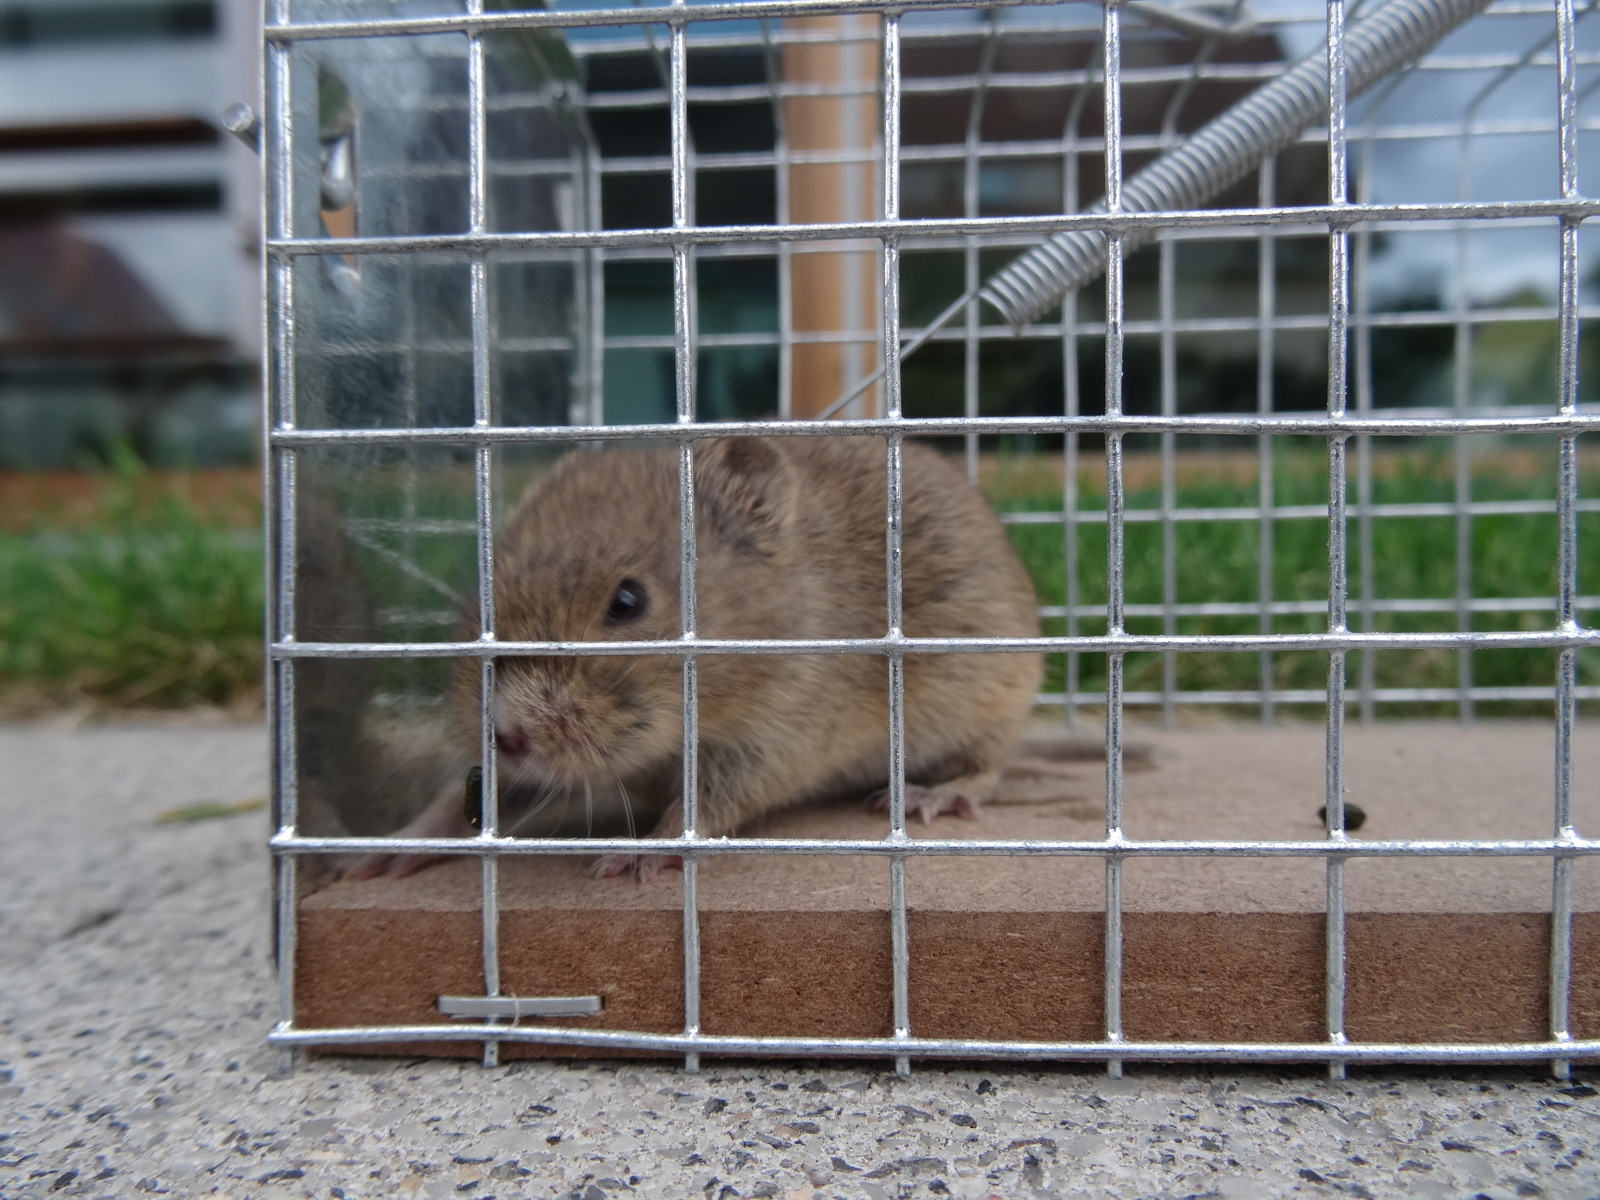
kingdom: Animalia
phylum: Chordata
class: Mammalia
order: Rodentia
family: Cricetidae
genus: Microtus
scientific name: Microtus arvalis
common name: Common vole
